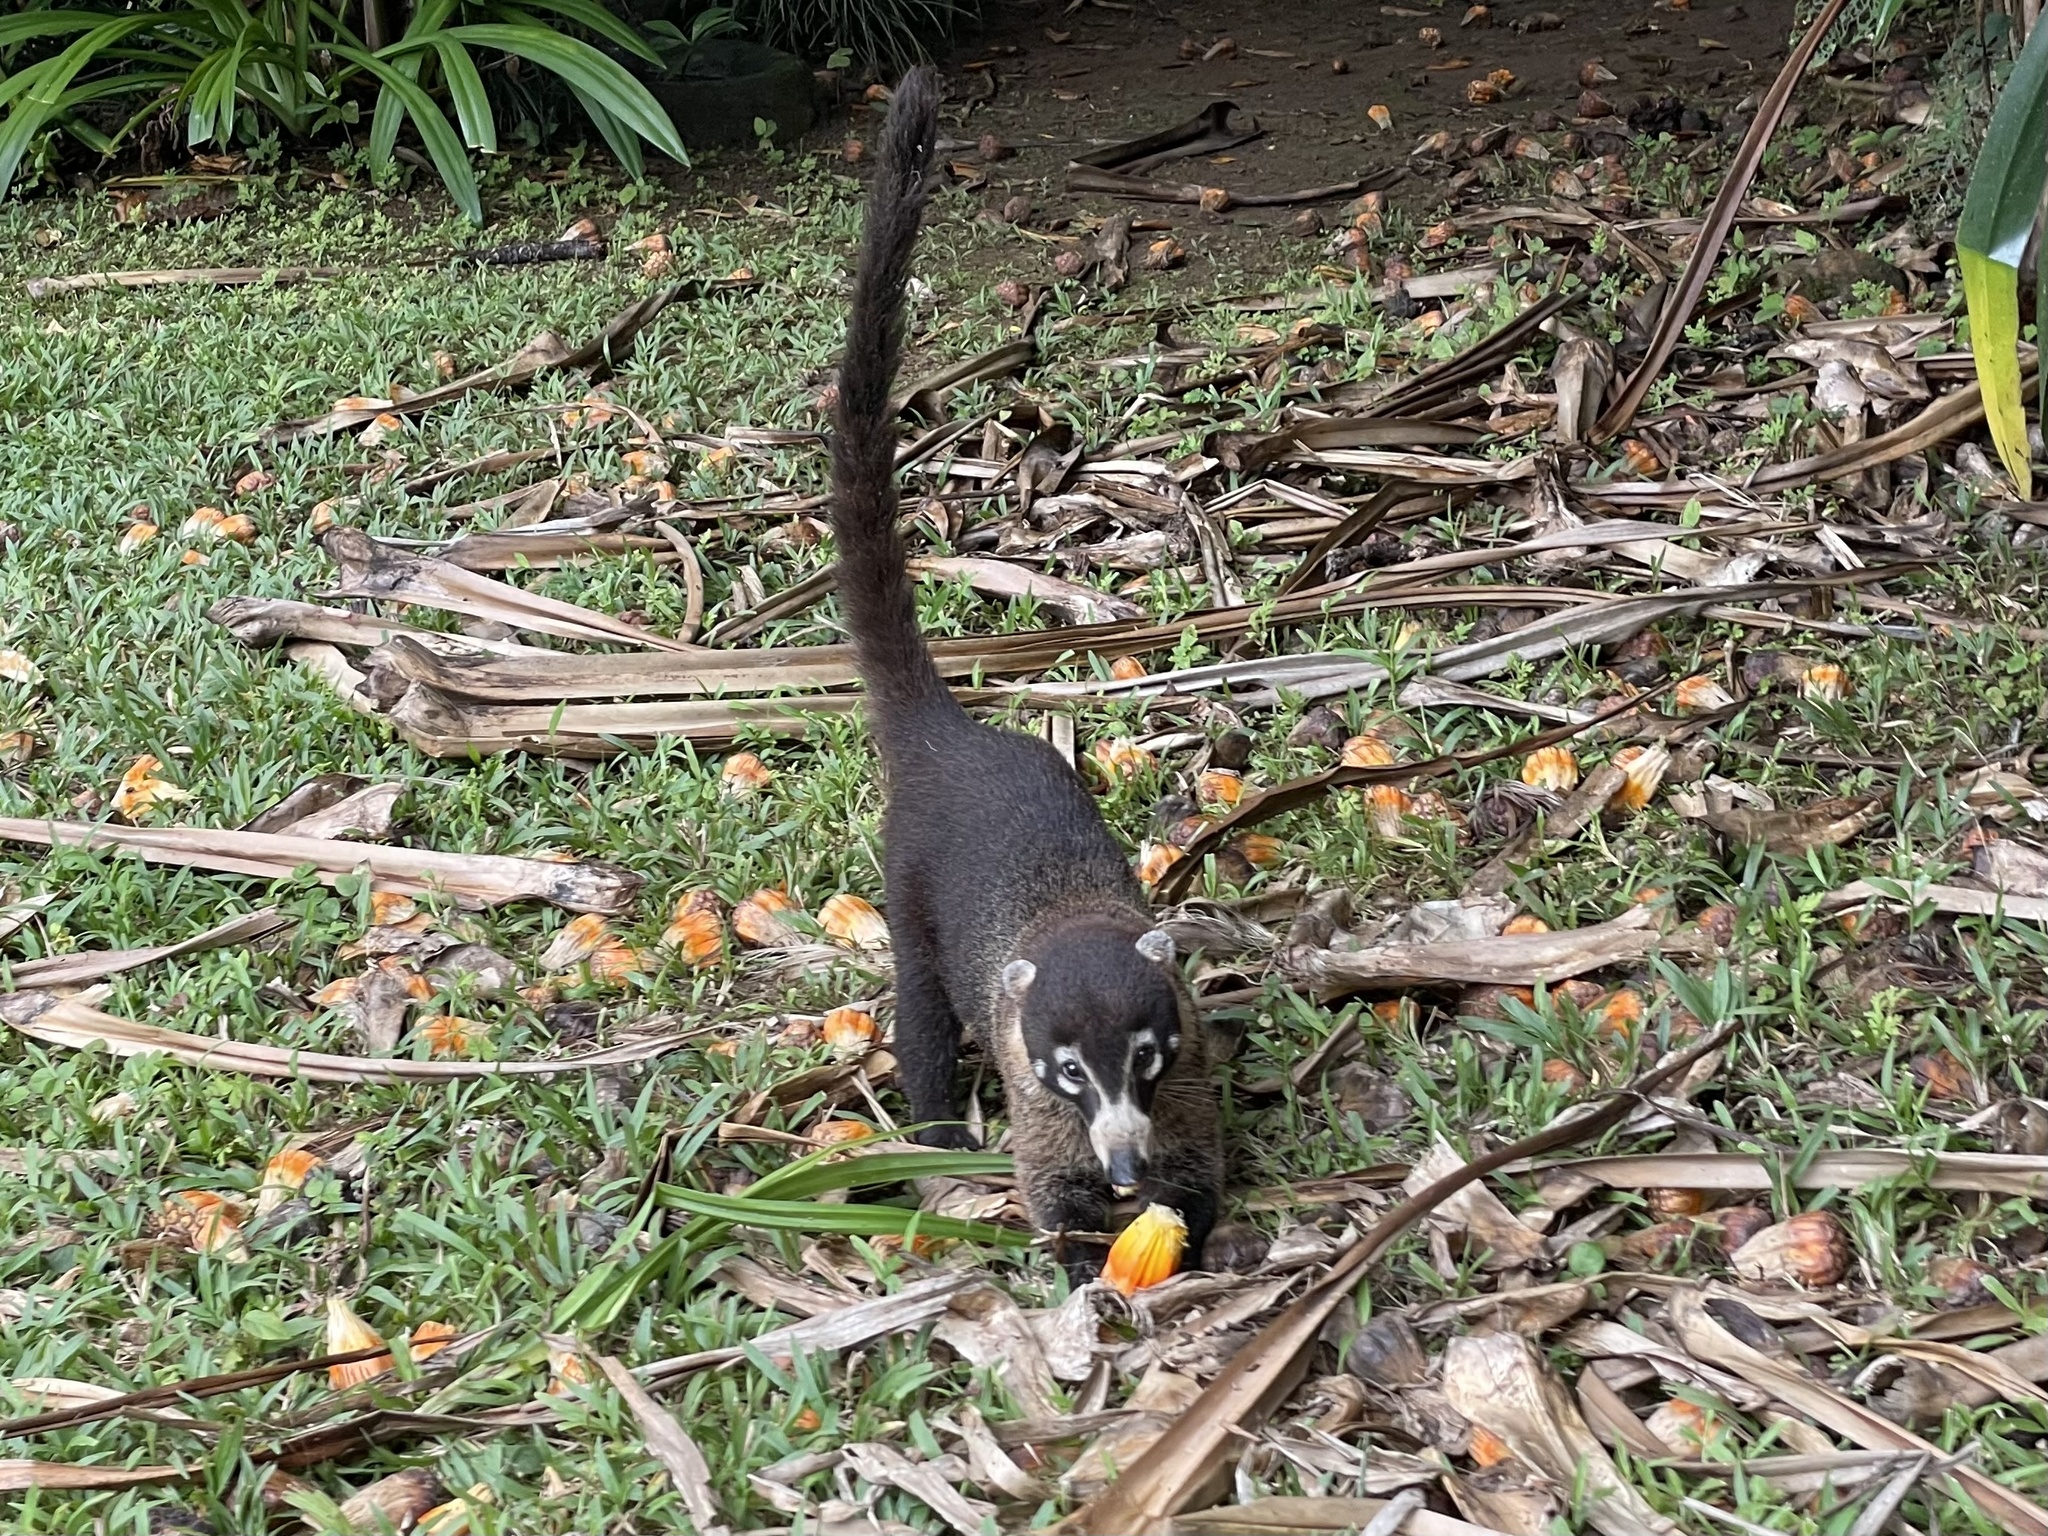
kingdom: Animalia
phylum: Chordata
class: Mammalia
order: Carnivora
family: Procyonidae
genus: Nasua
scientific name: Nasua narica
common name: White-nosed coati
